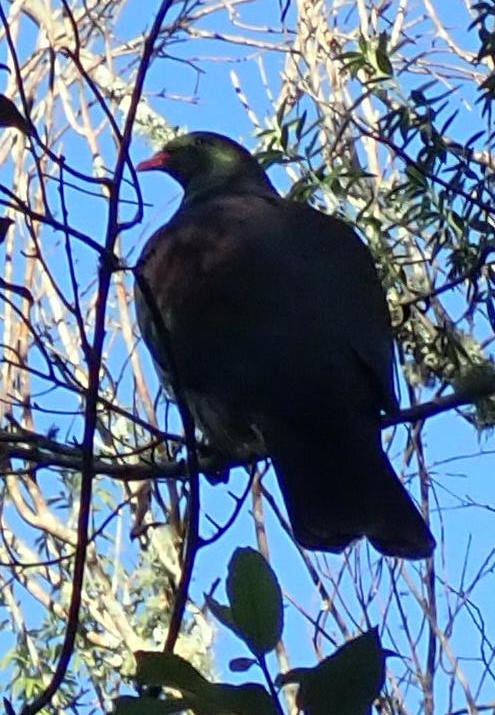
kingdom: Animalia
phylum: Chordata
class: Aves
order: Columbiformes
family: Columbidae
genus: Hemiphaga
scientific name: Hemiphaga novaeseelandiae
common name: New zealand pigeon
